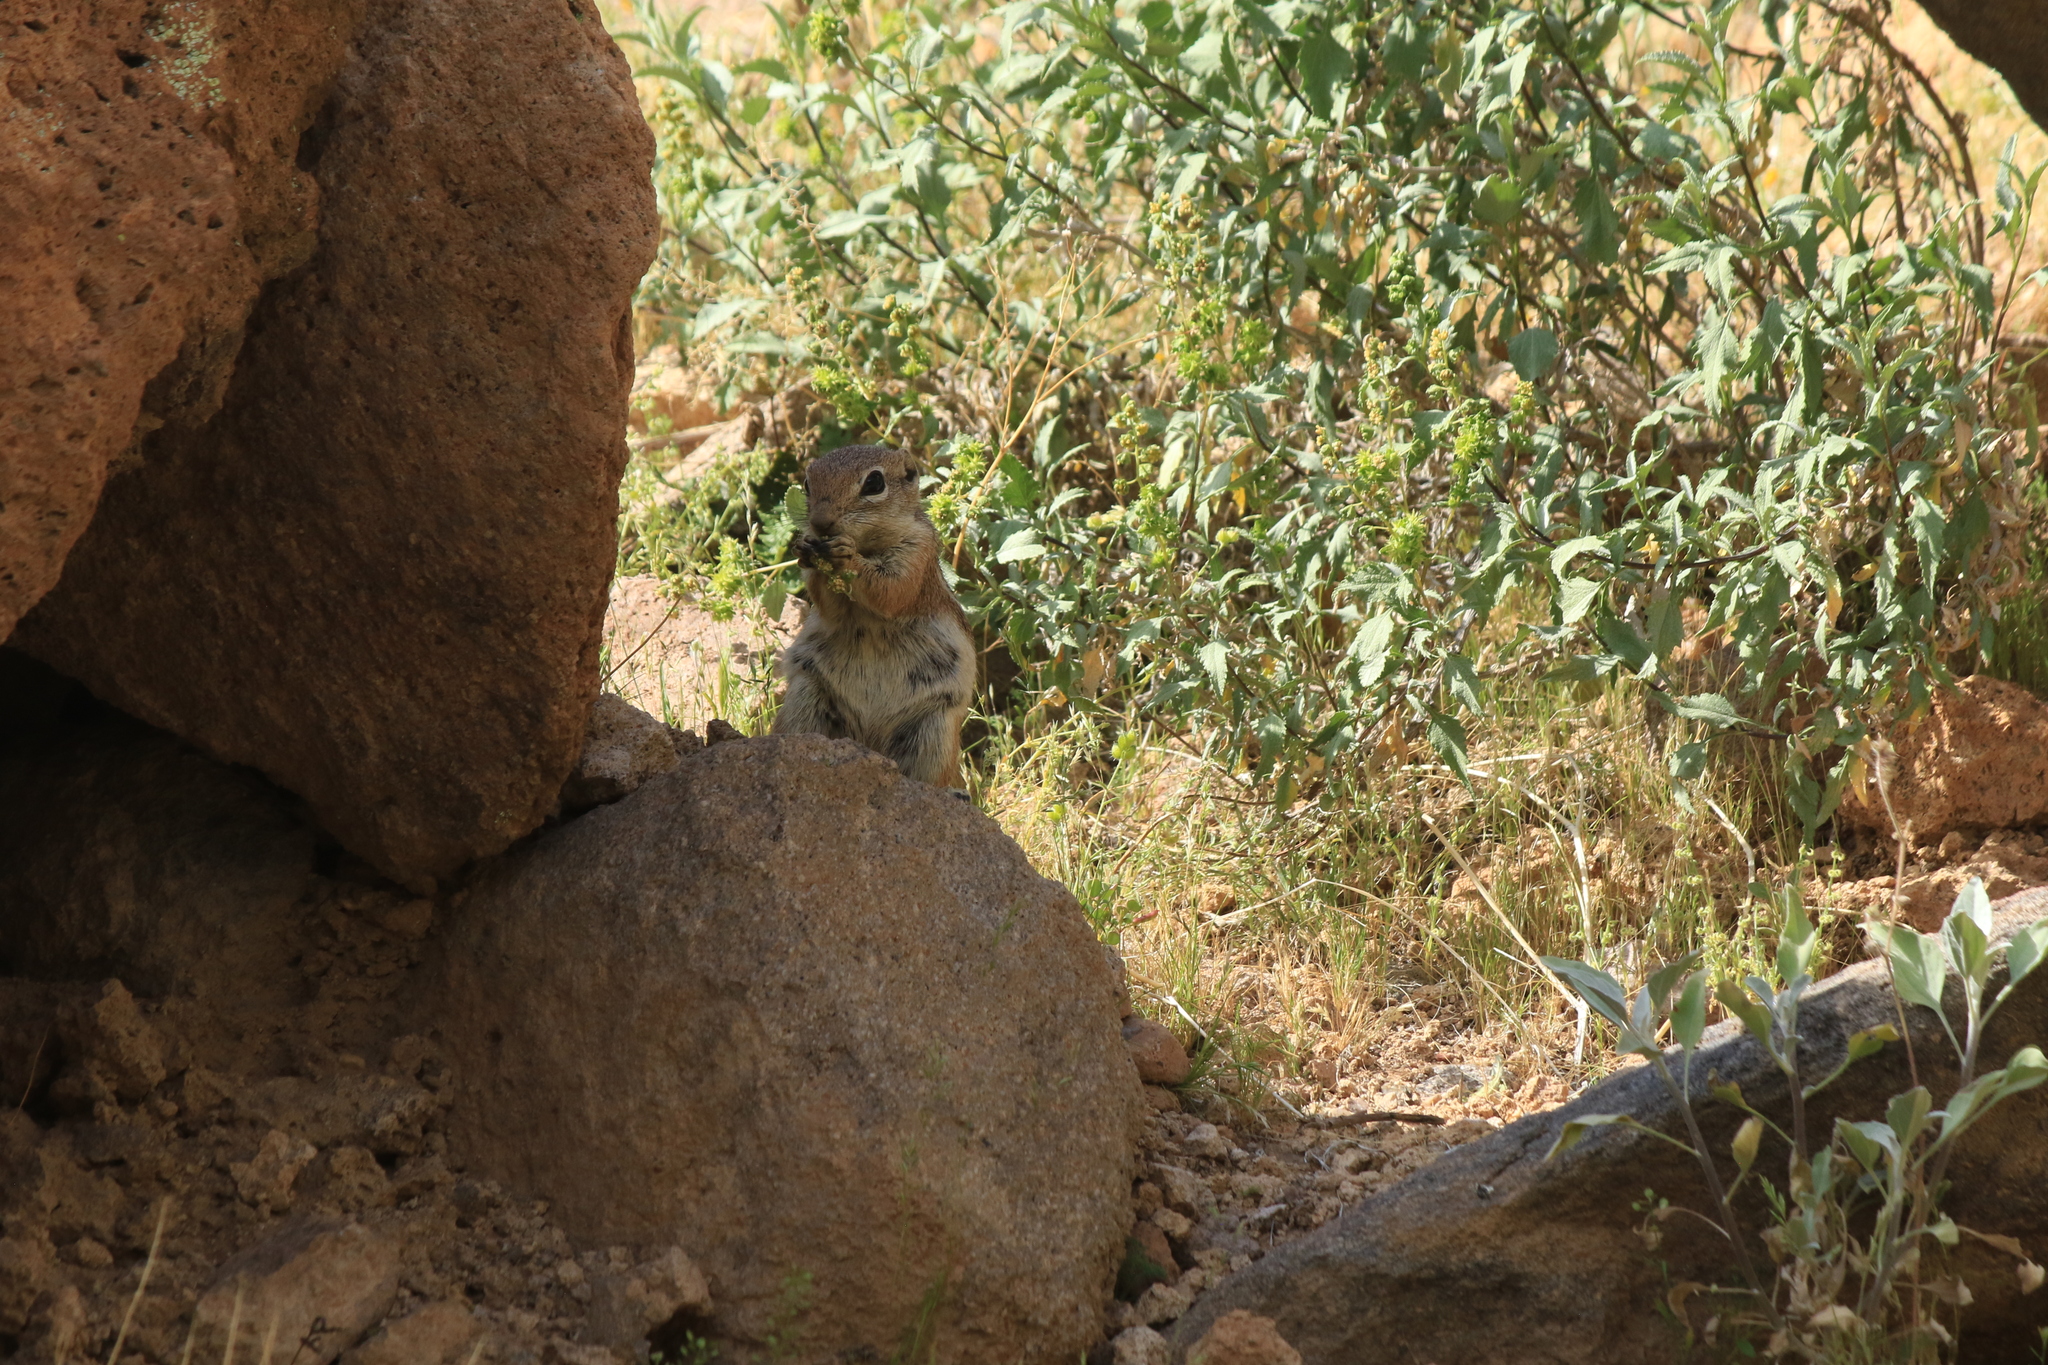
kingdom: Animalia
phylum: Chordata
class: Mammalia
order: Rodentia
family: Sciuridae
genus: Ammospermophilus
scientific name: Ammospermophilus harrisii
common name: Harris's antelope squirrel
